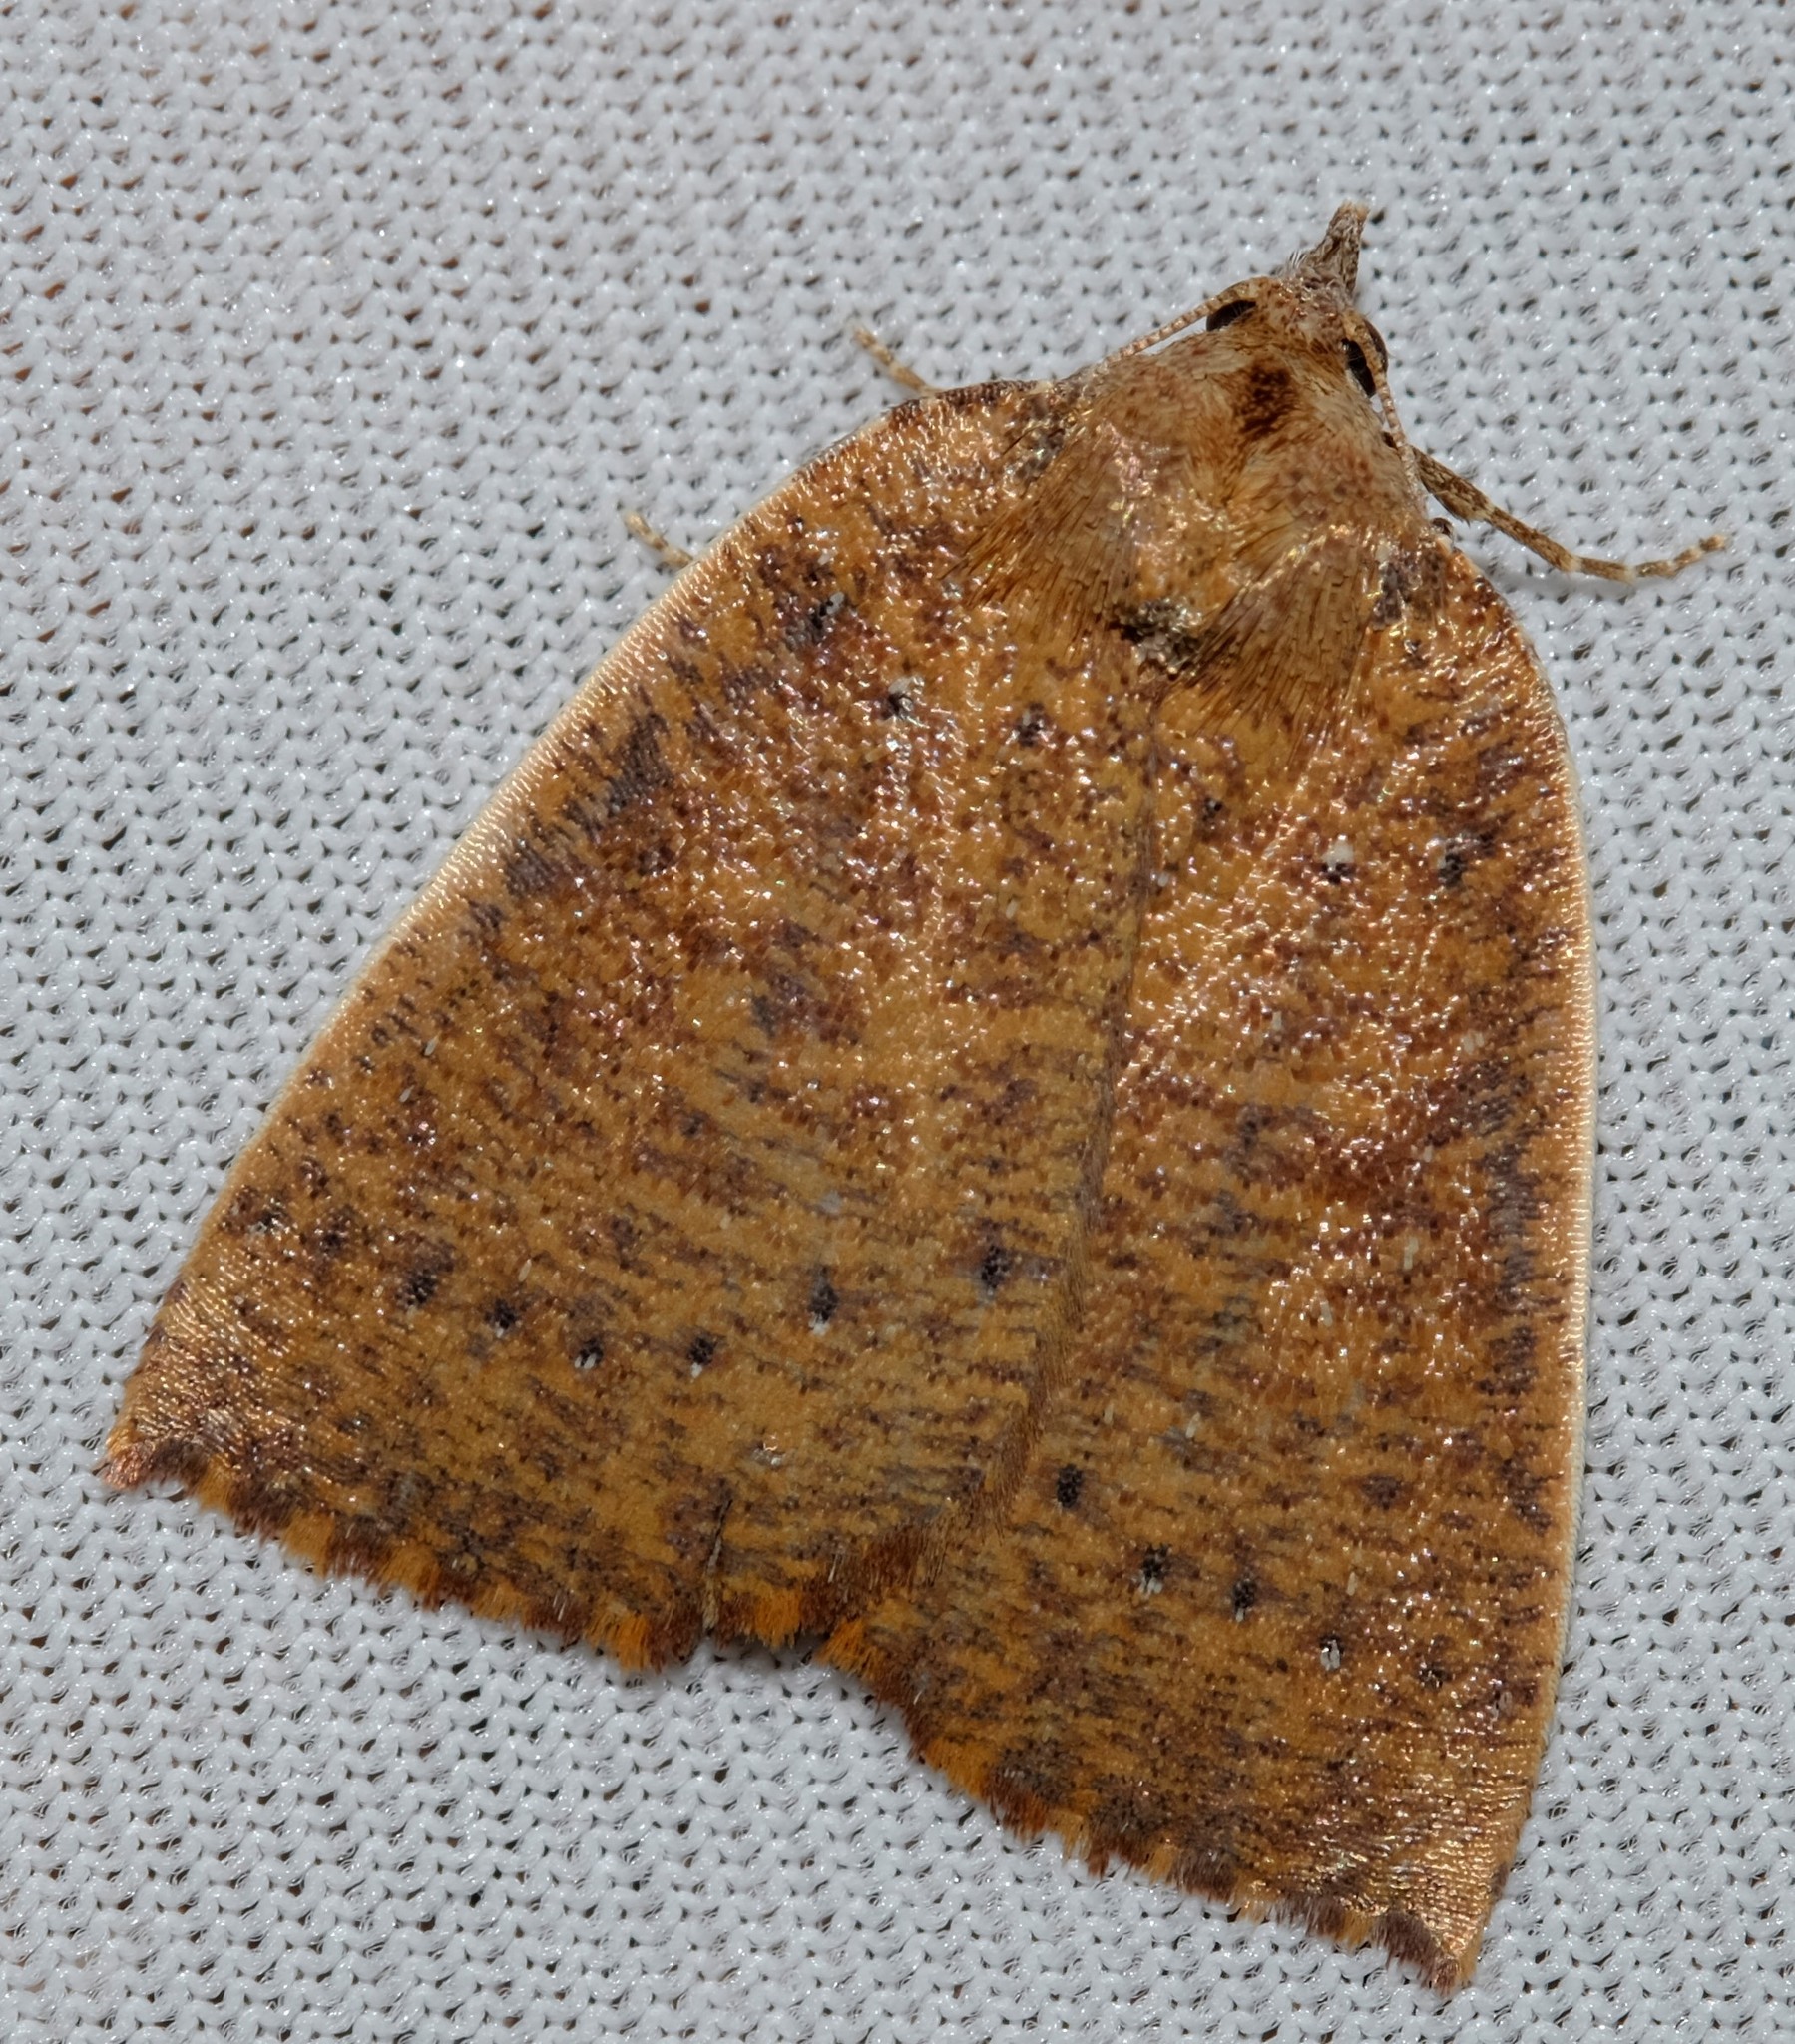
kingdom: Animalia
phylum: Arthropoda
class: Insecta
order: Lepidoptera
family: Geometridae
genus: Authaemon
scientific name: Authaemon stenonipha
